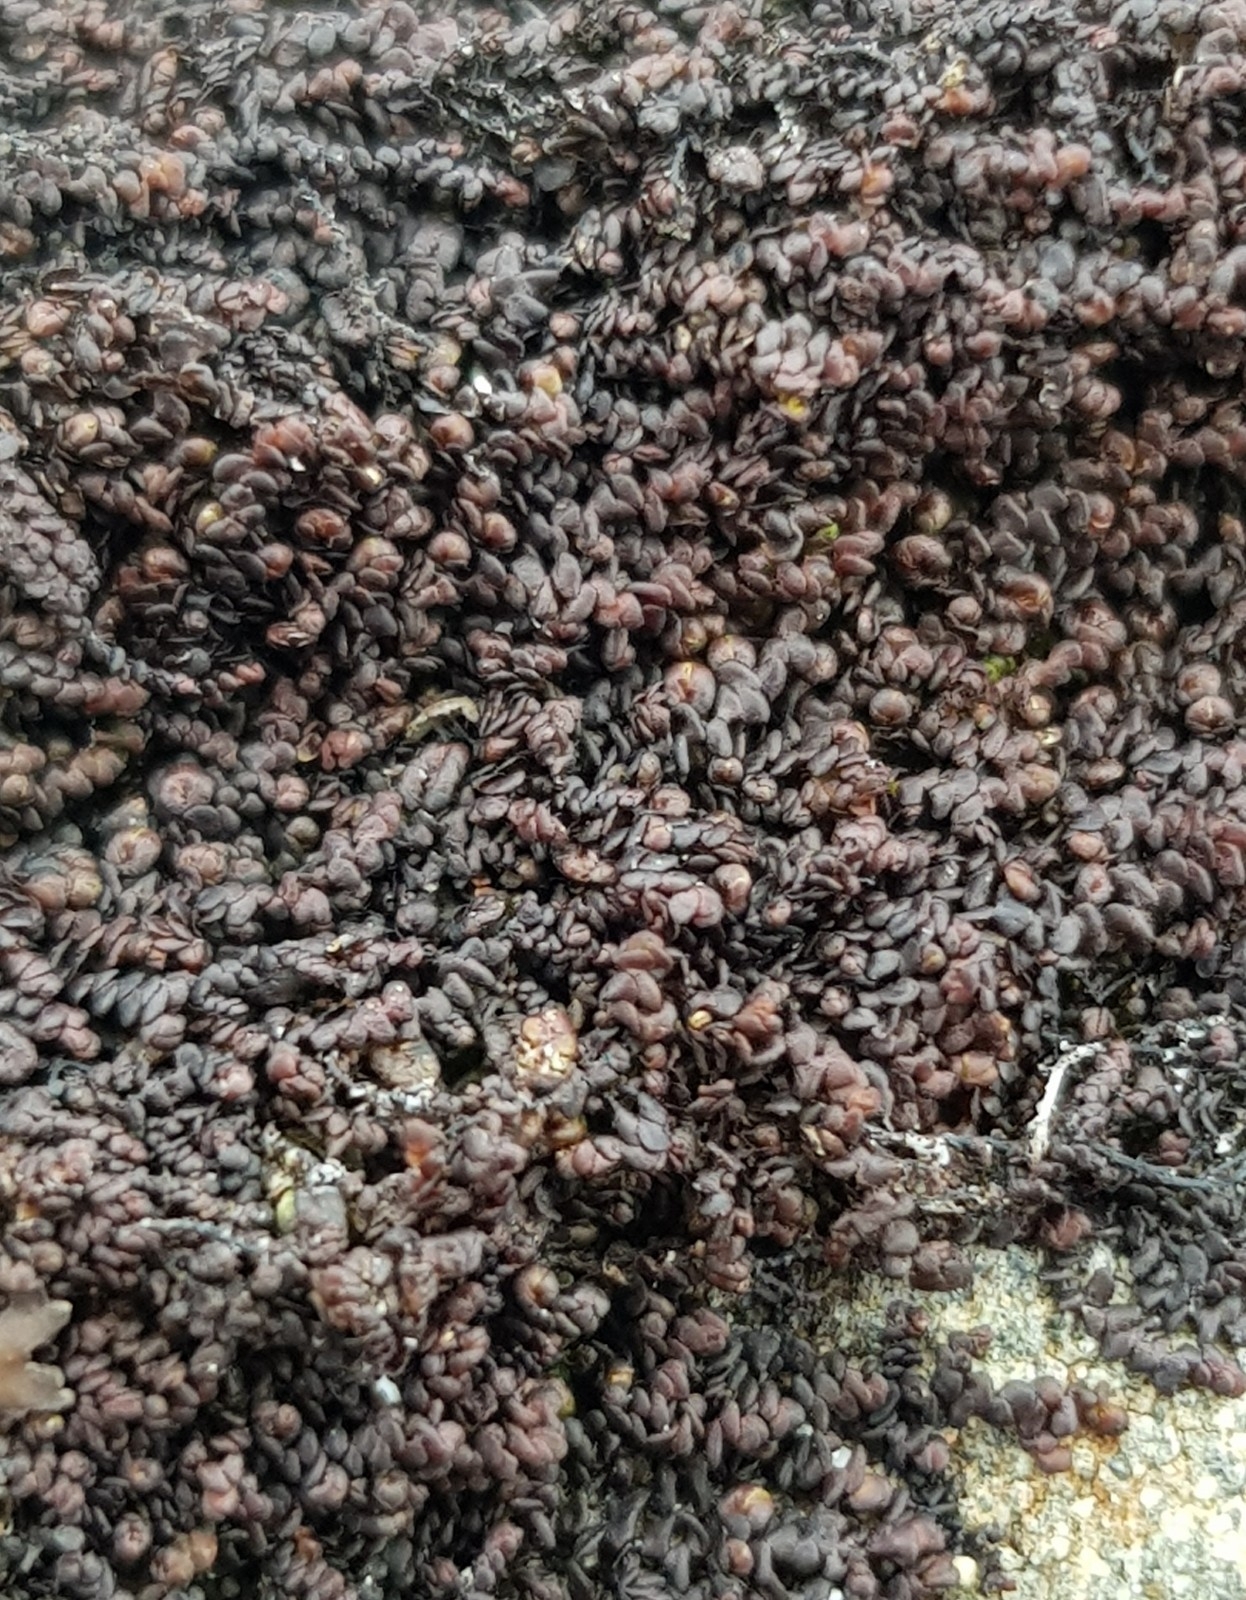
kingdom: Plantae
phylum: Marchantiophyta
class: Jungermanniopsida
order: Porellales
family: Frullaniaceae
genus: Frullania
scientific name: Frullania fragilifolia
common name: Spotty scalewort
